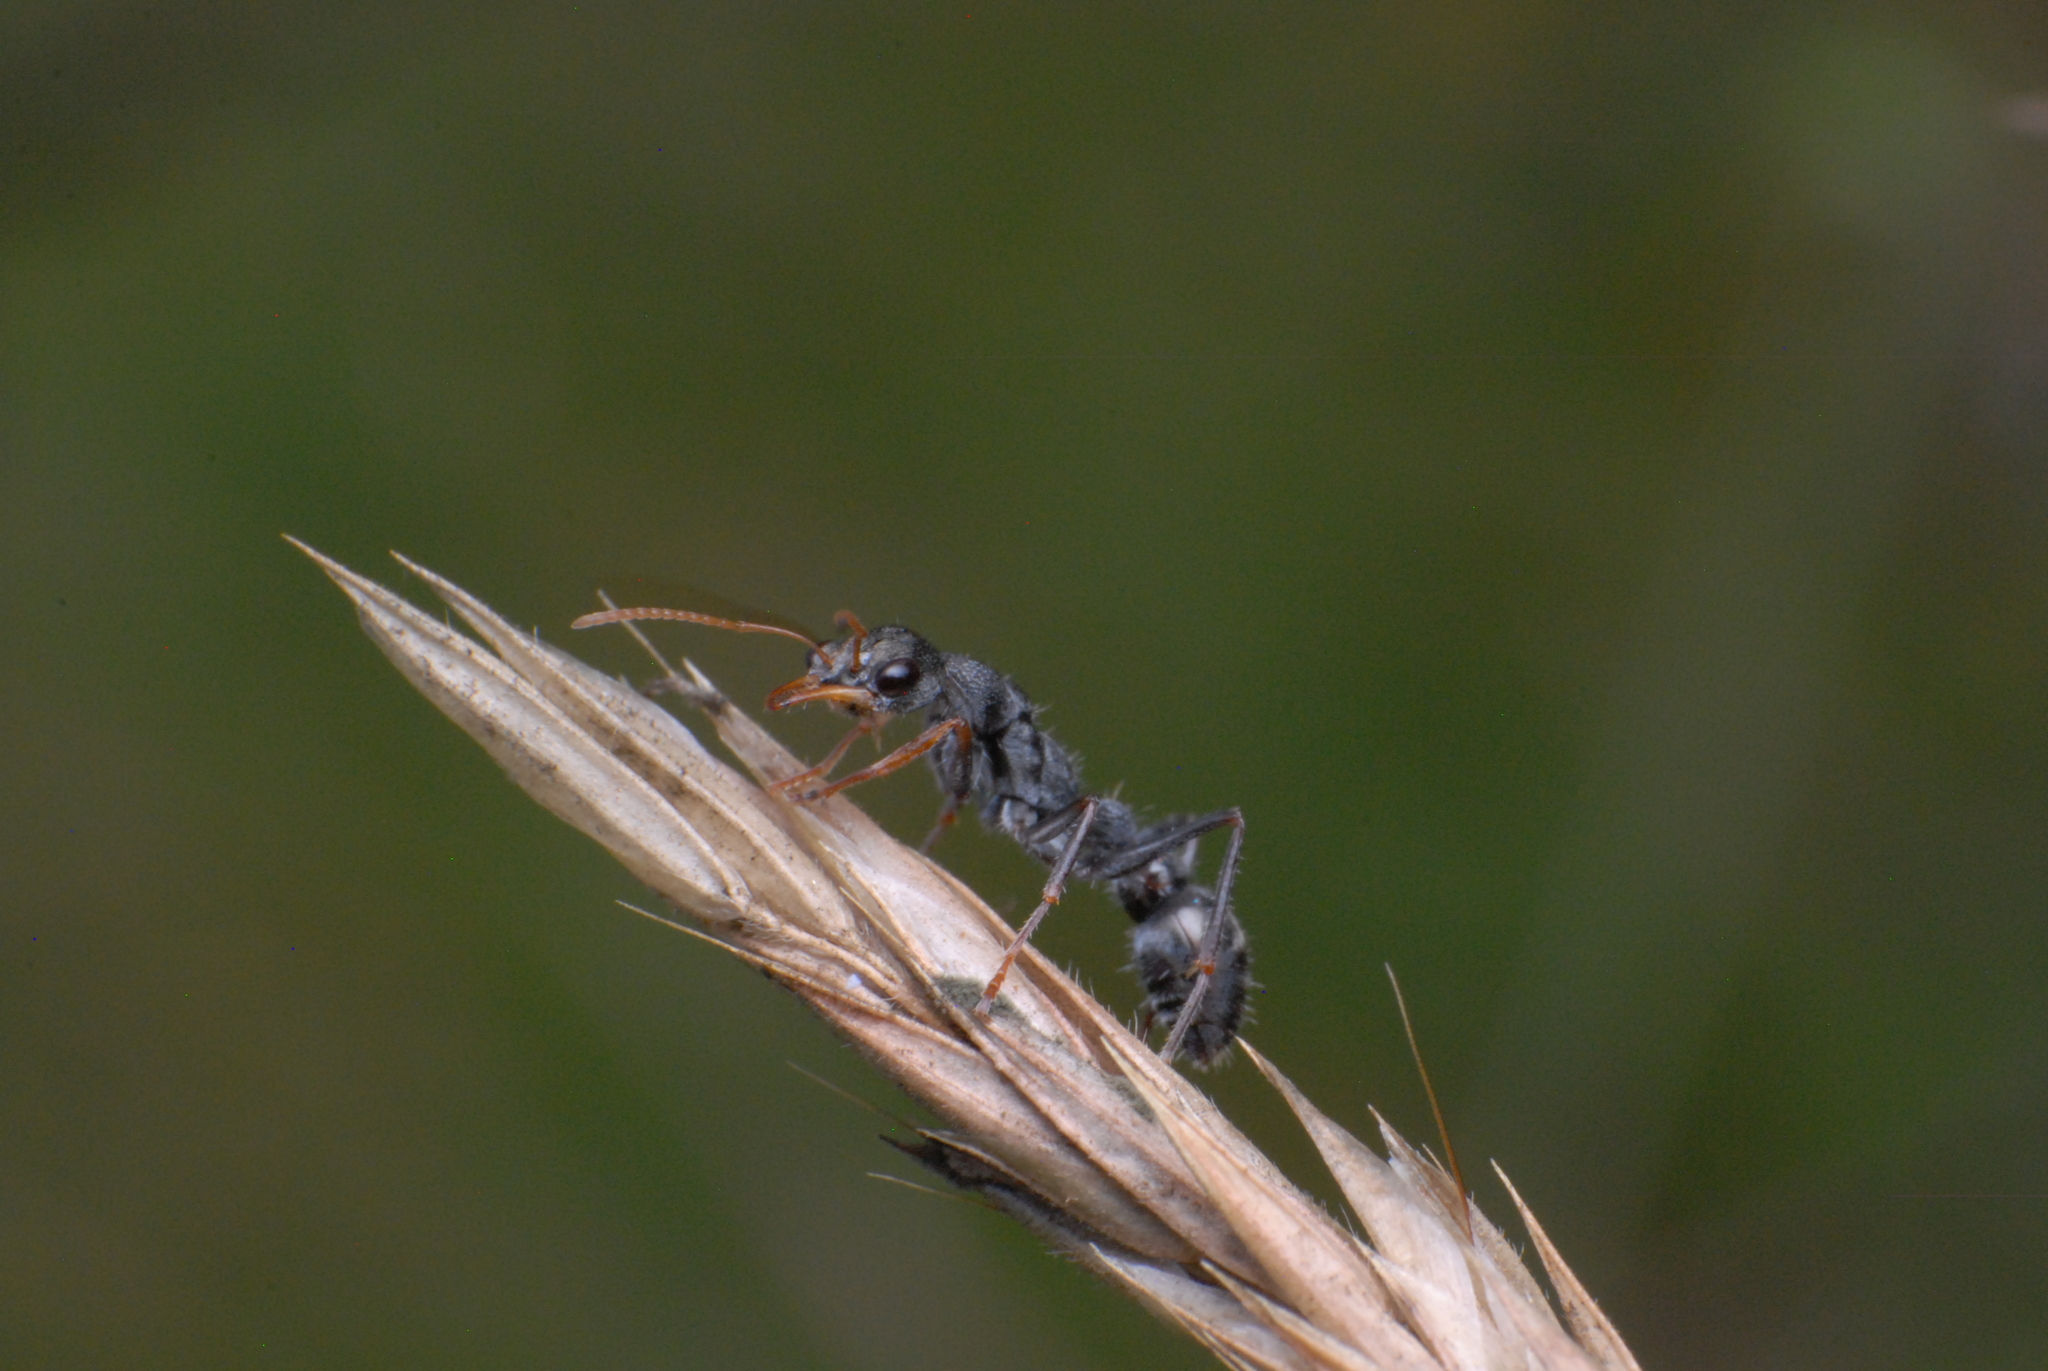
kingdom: Animalia
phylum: Arthropoda
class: Insecta
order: Hymenoptera
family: Formicidae
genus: Myrmecia
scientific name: Myrmecia urens
